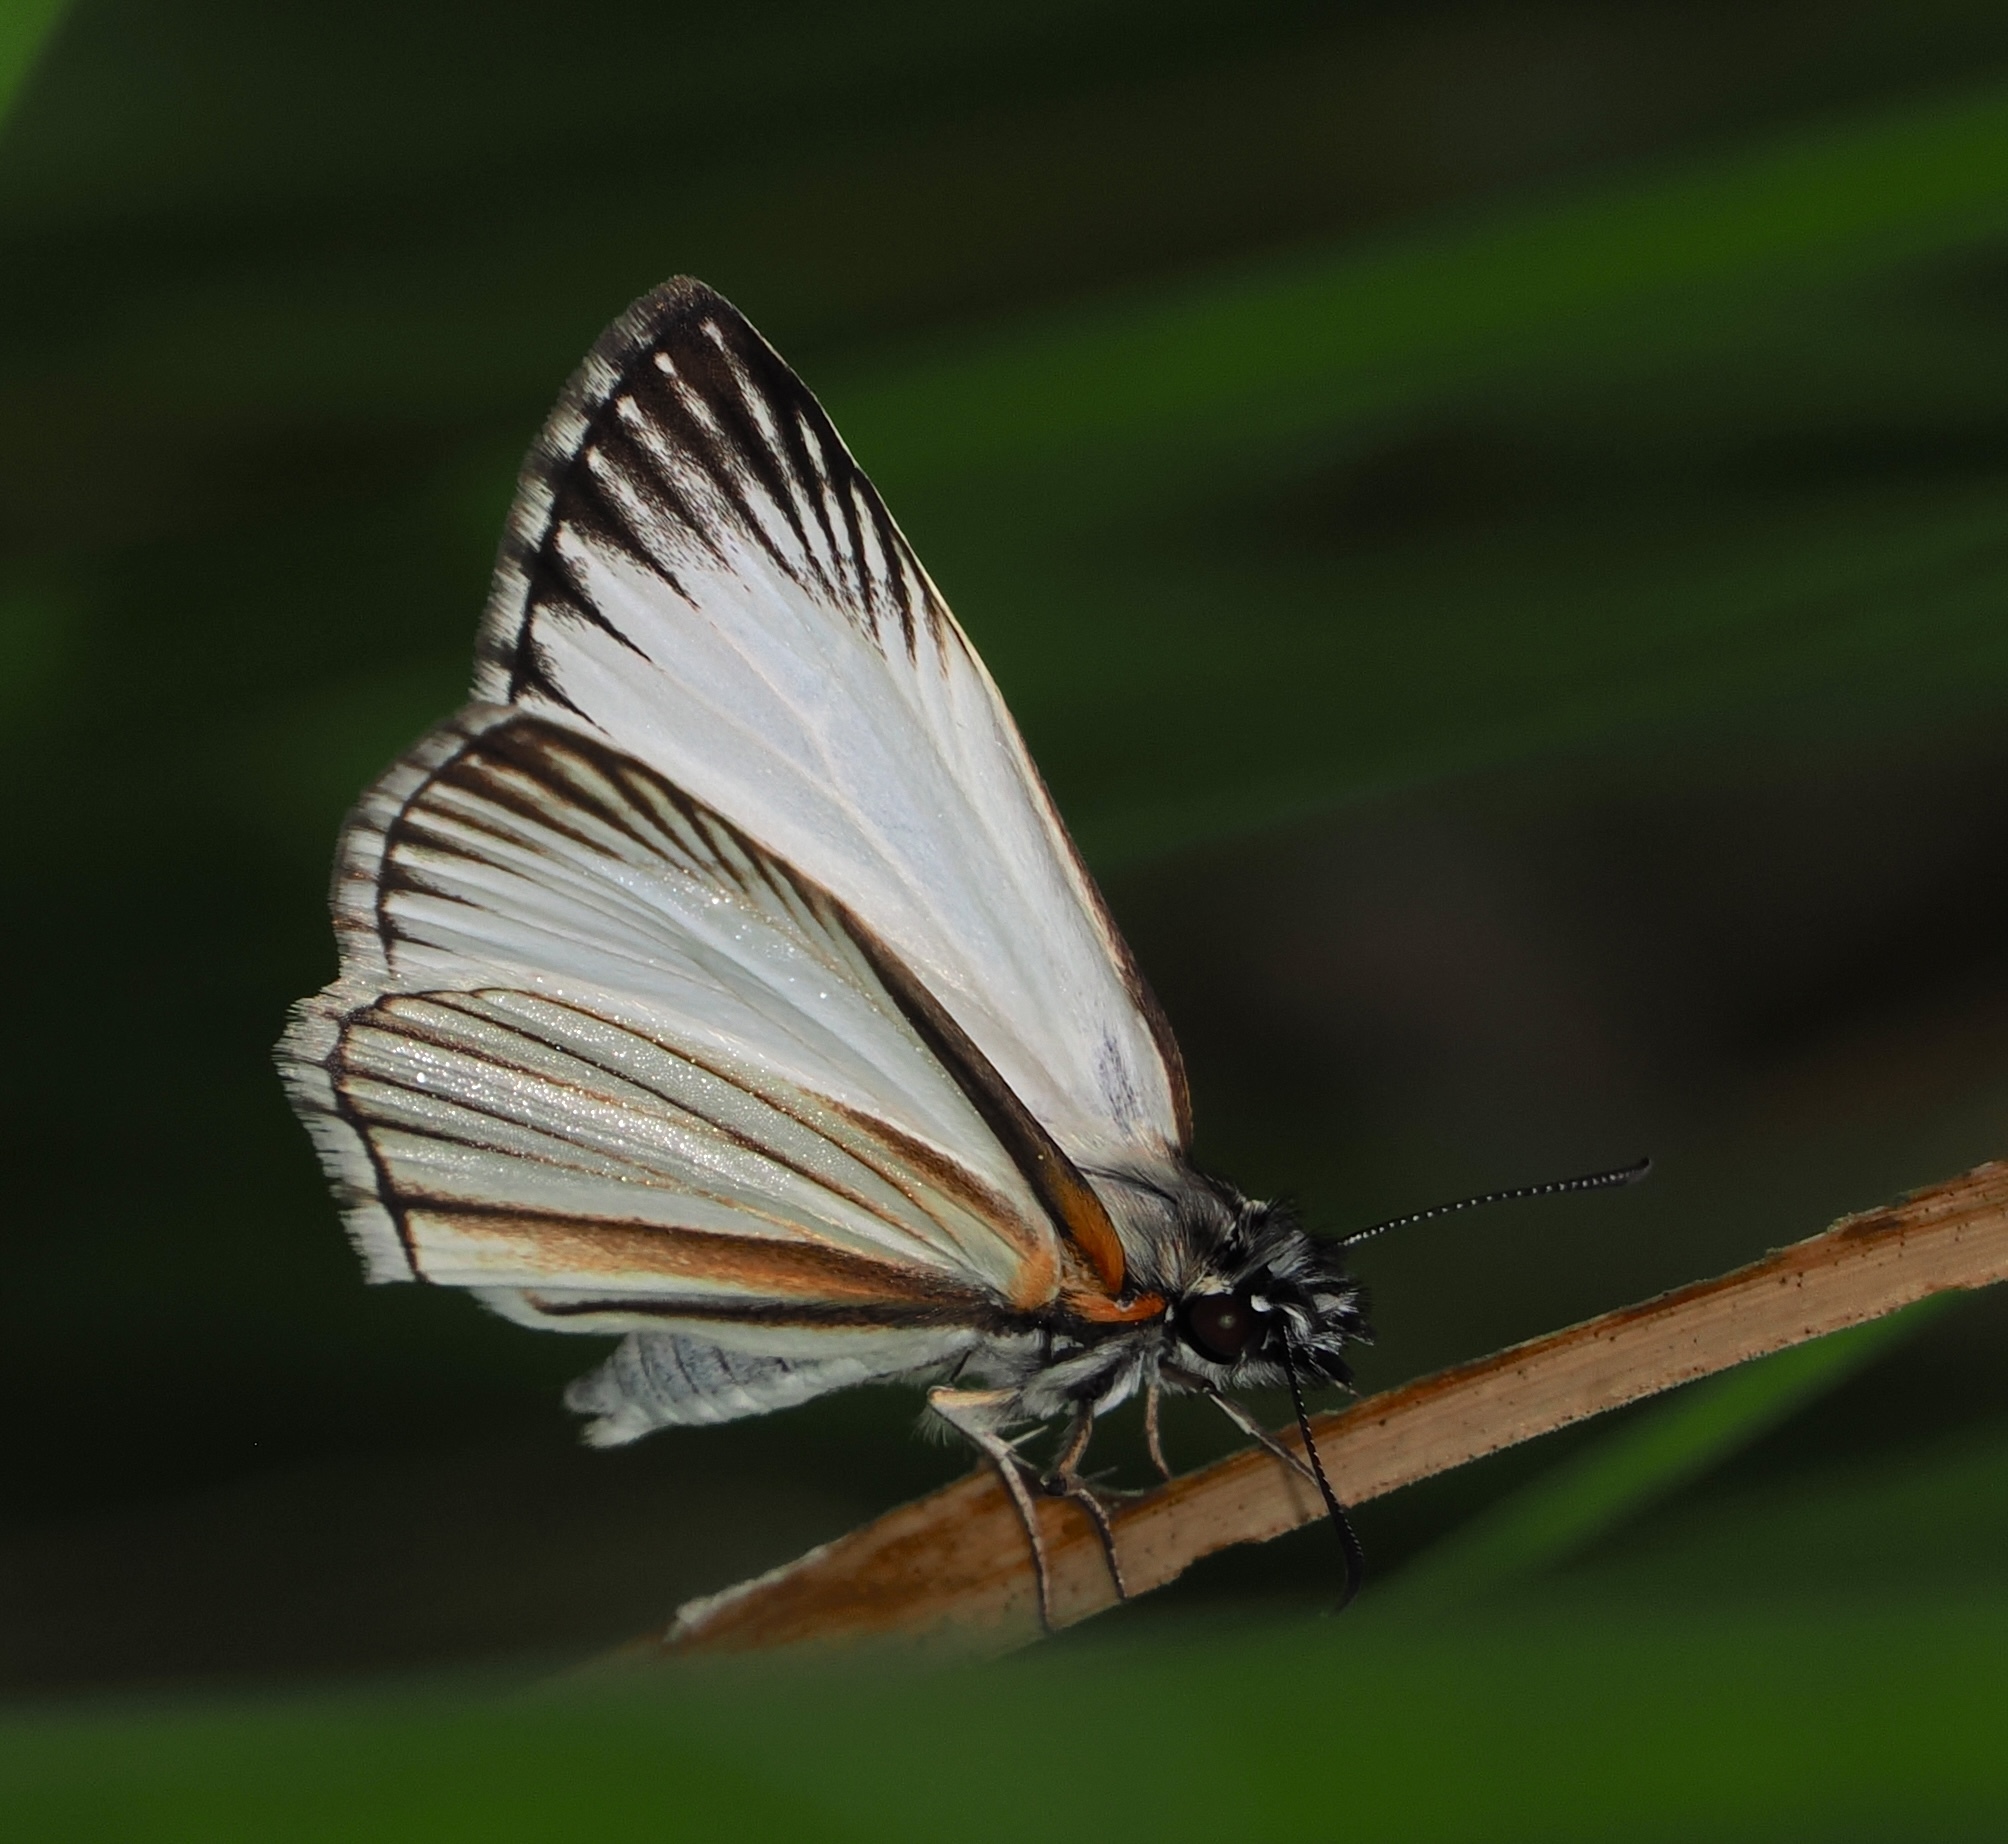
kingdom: Animalia
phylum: Arthropoda
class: Insecta
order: Lepidoptera
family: Hesperiidae
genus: Heliopetes
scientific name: Heliopetes arsalte
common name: Veined white-skipper
